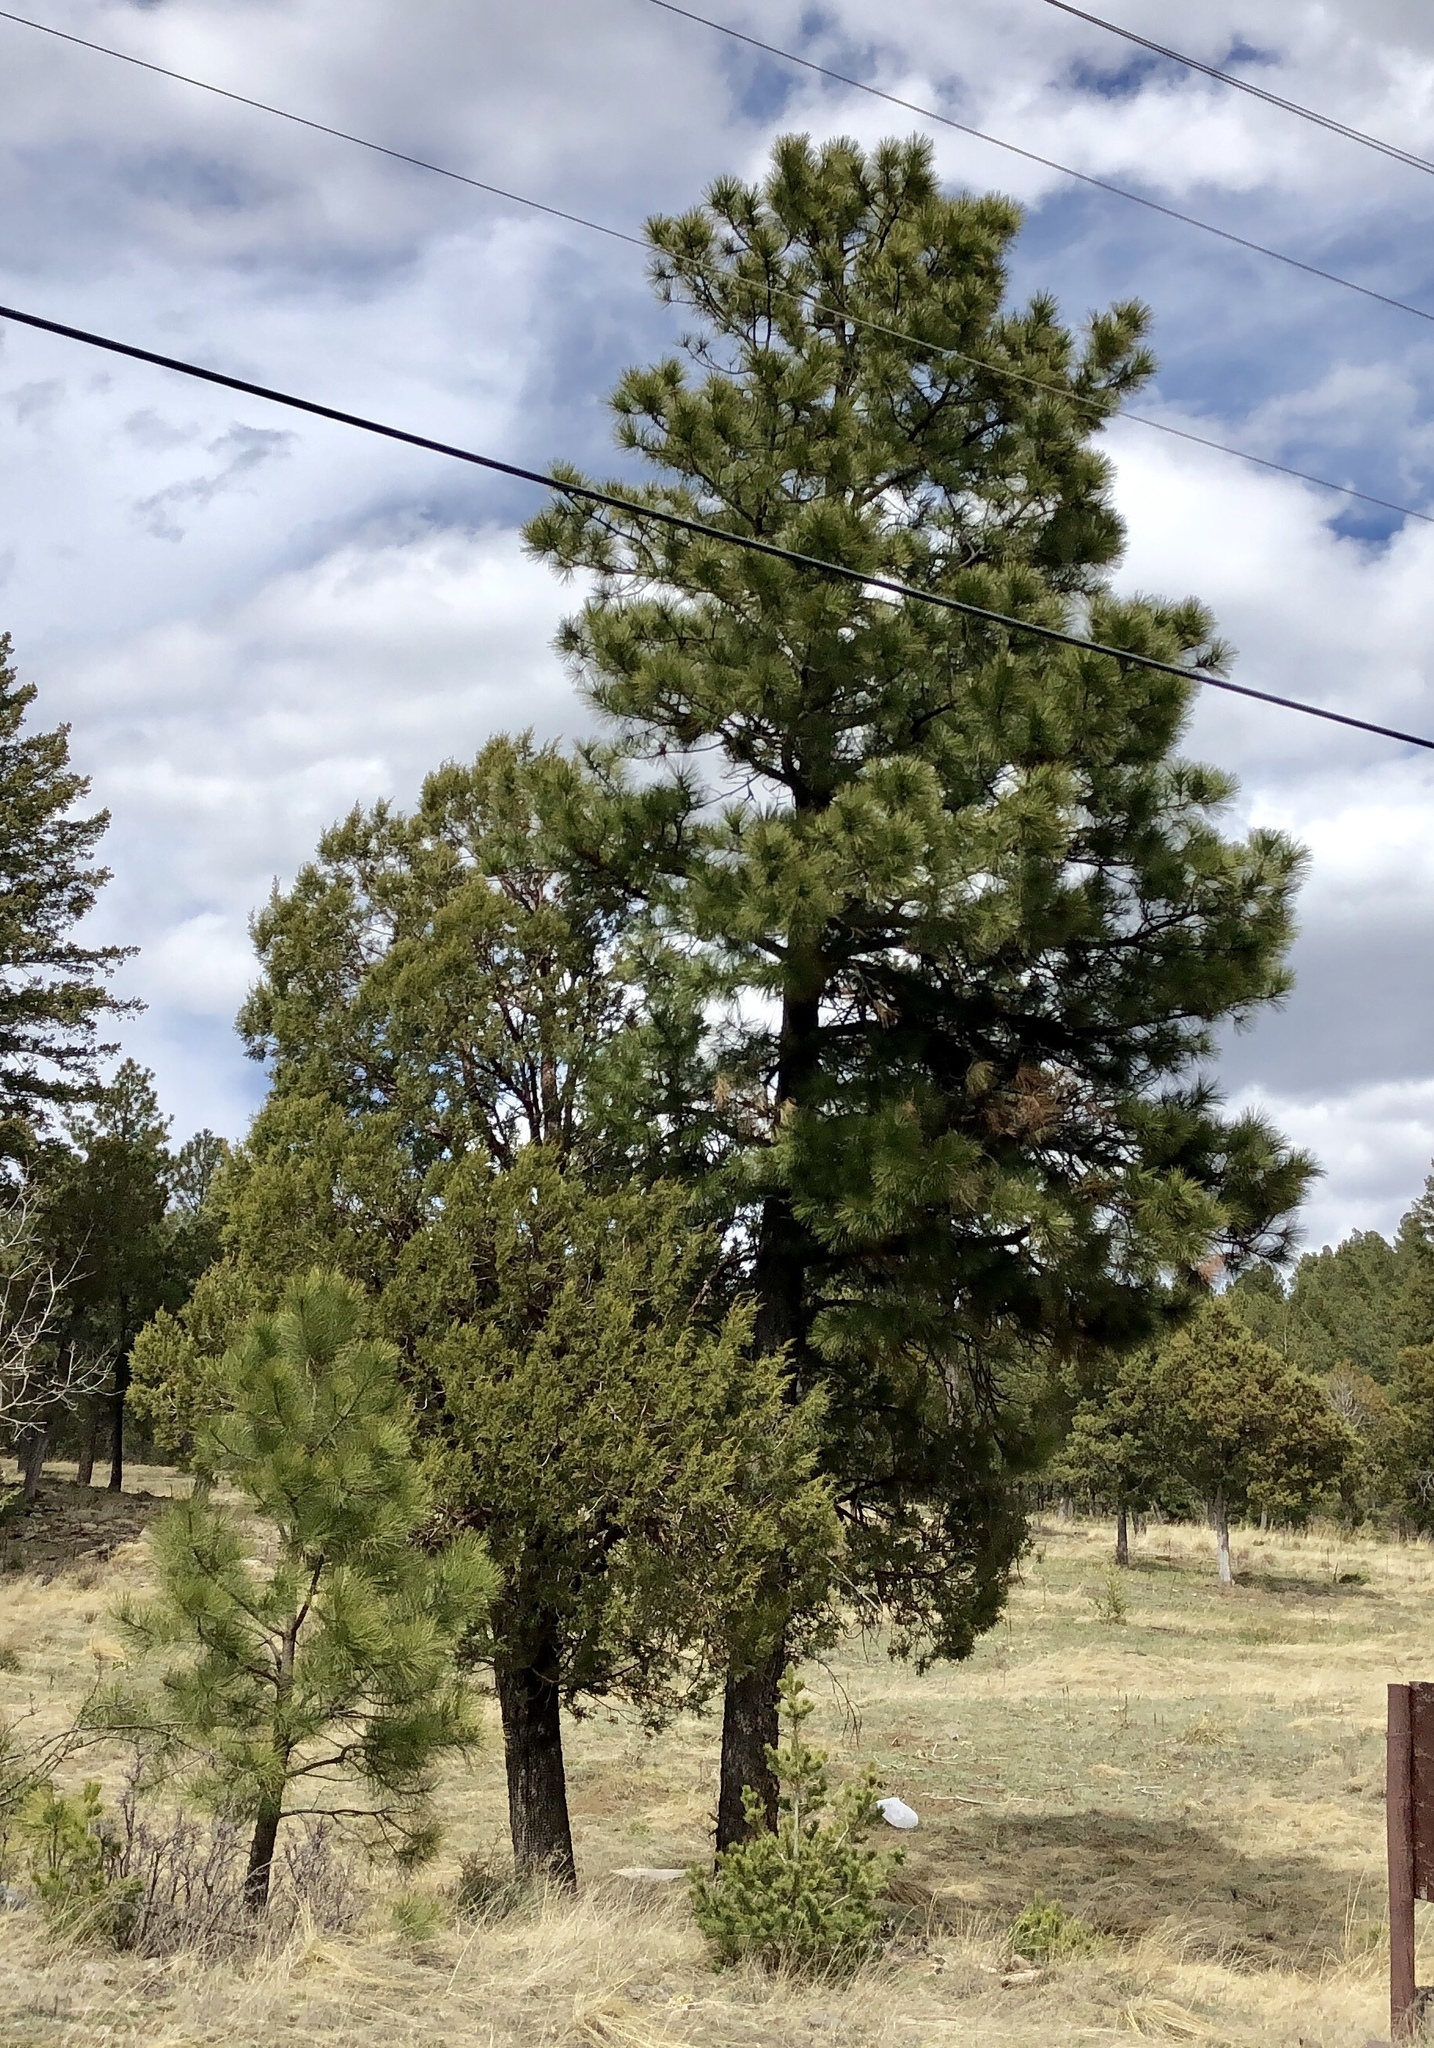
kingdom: Plantae
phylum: Tracheophyta
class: Pinopsida
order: Pinales
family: Pinaceae
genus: Pinus
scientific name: Pinus ponderosa
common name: Western yellow-pine
